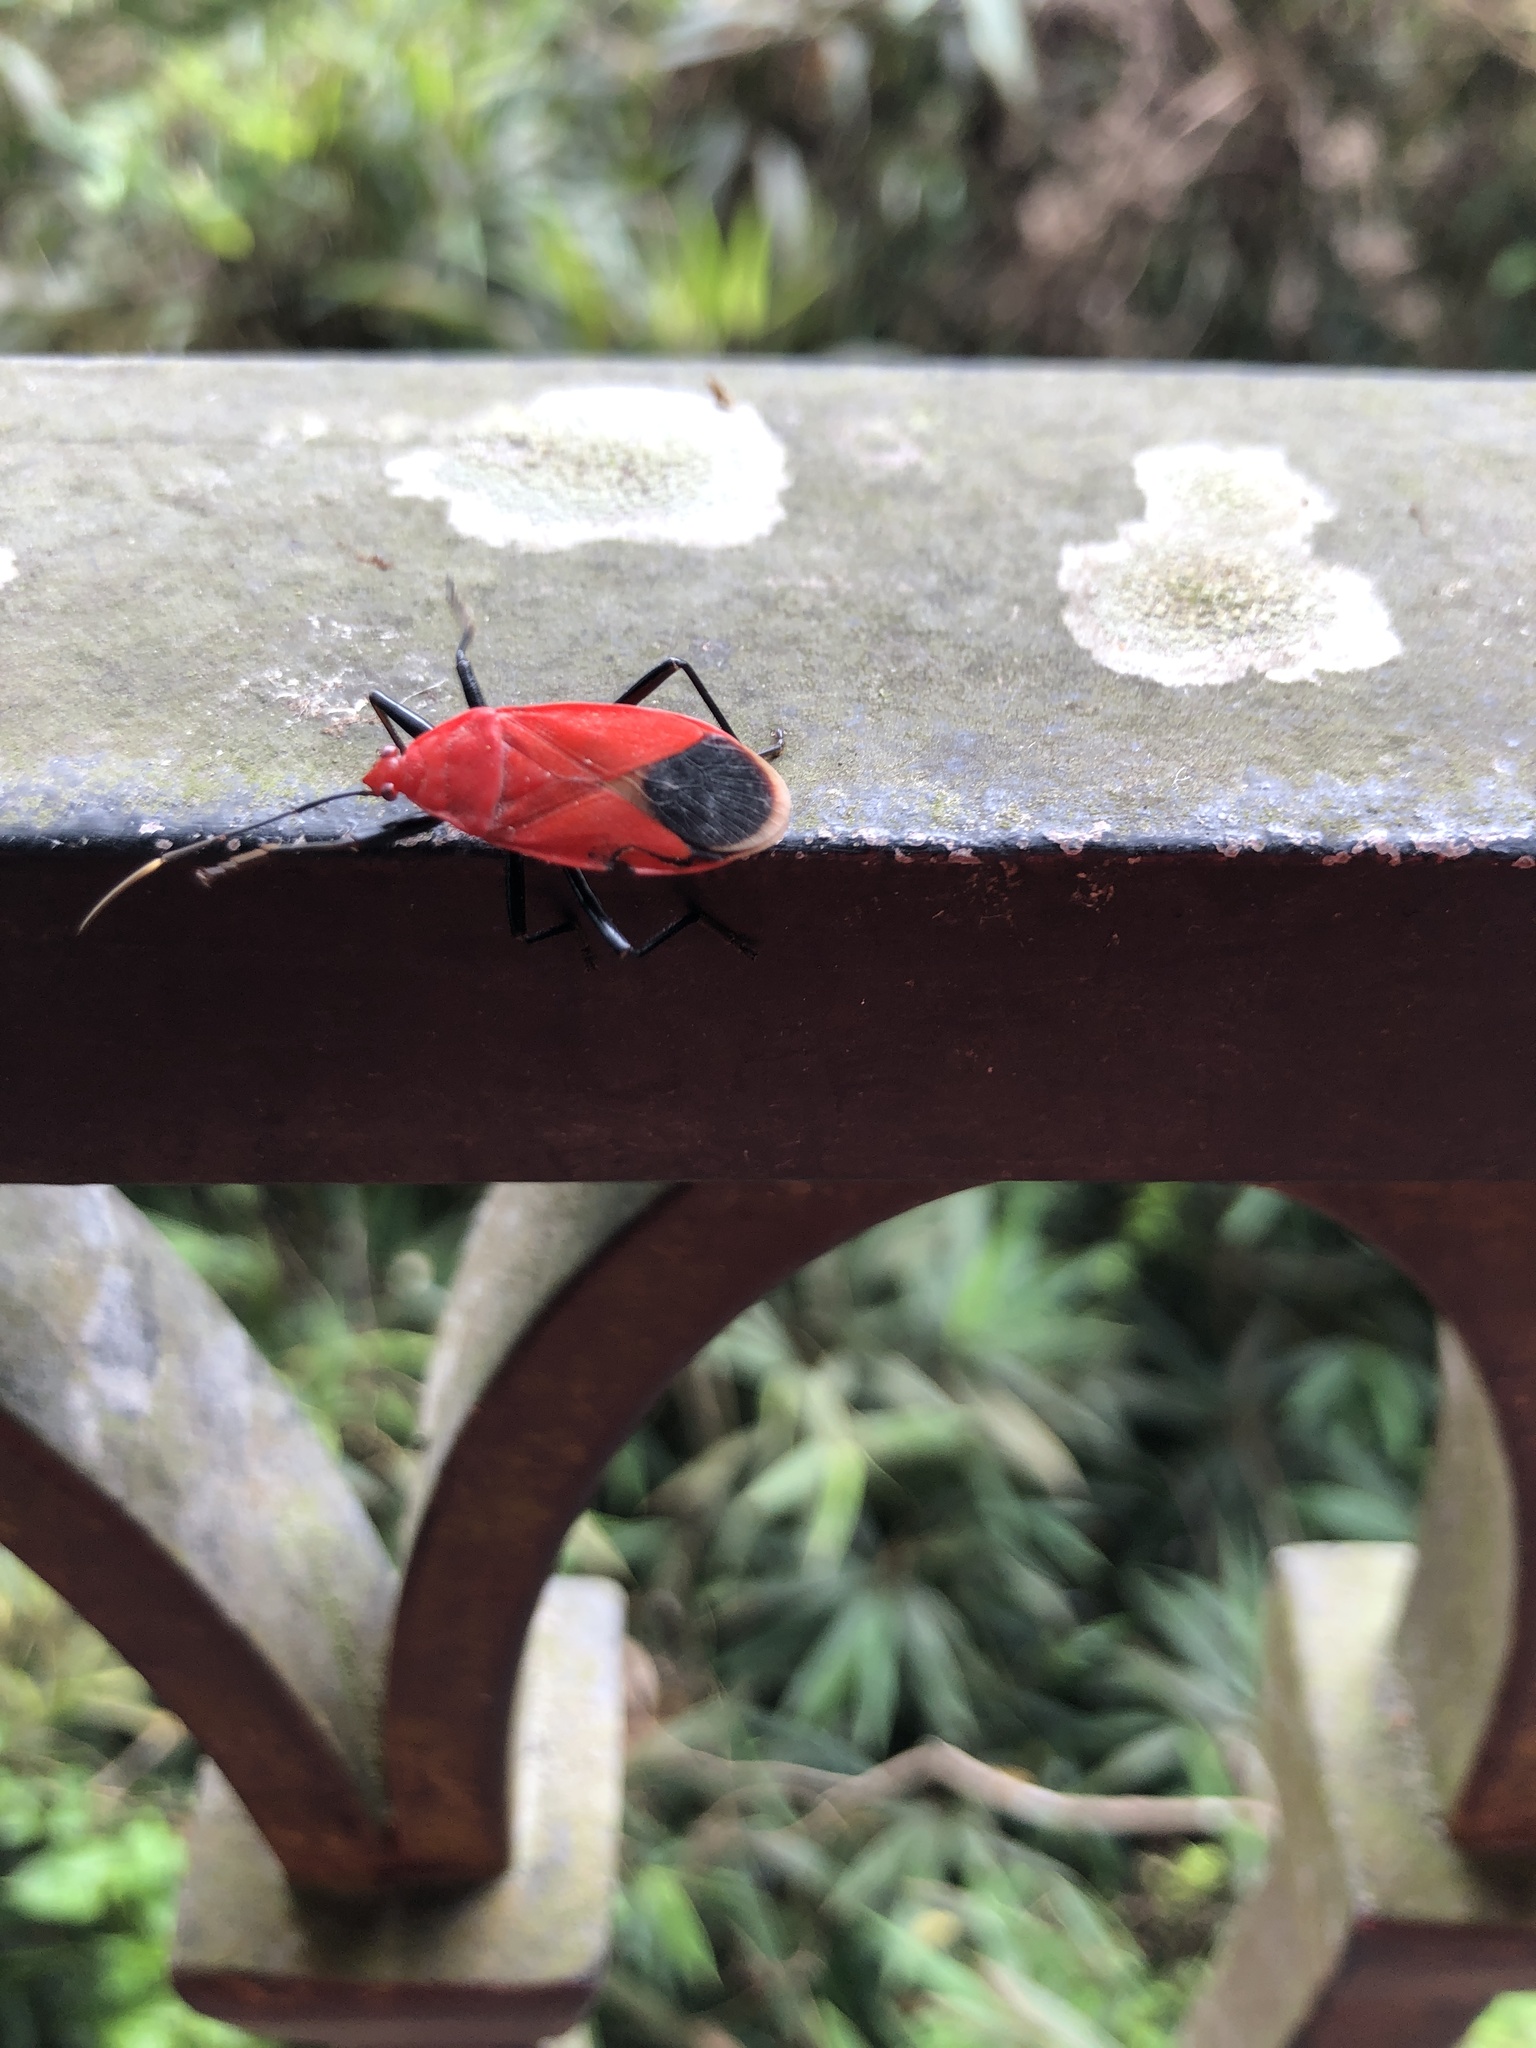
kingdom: Animalia
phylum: Arthropoda
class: Insecta
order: Hemiptera
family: Pyrrhocoridae
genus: Antilochus
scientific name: Antilochus
